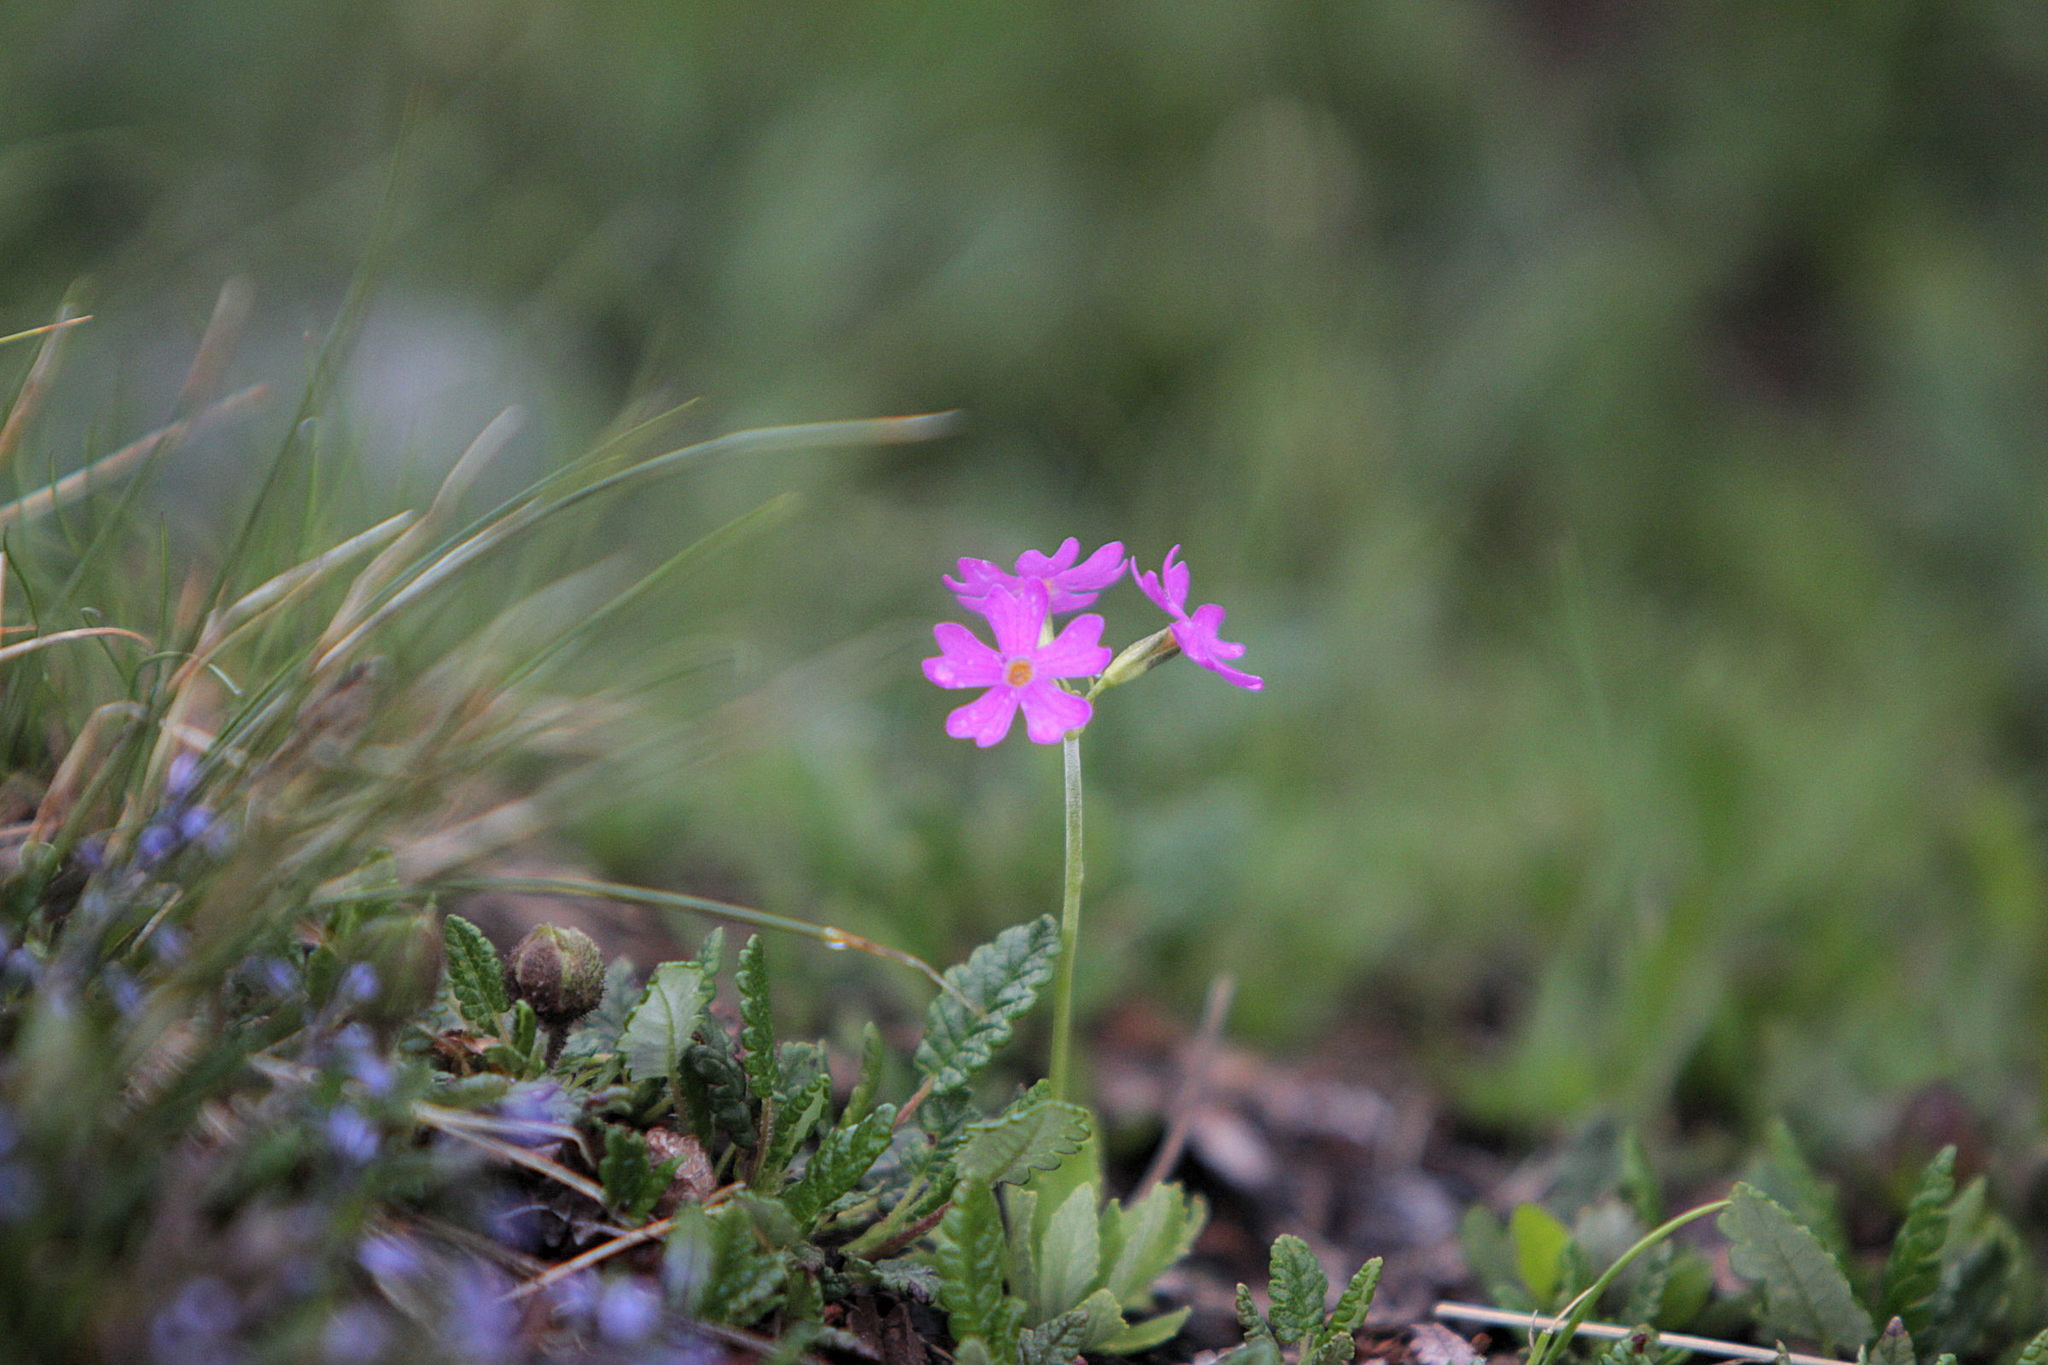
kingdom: Plantae
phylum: Tracheophyta
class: Magnoliopsida
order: Ericales
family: Primulaceae
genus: Primula
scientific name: Primula farinosa
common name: Bird's-eye primrose
